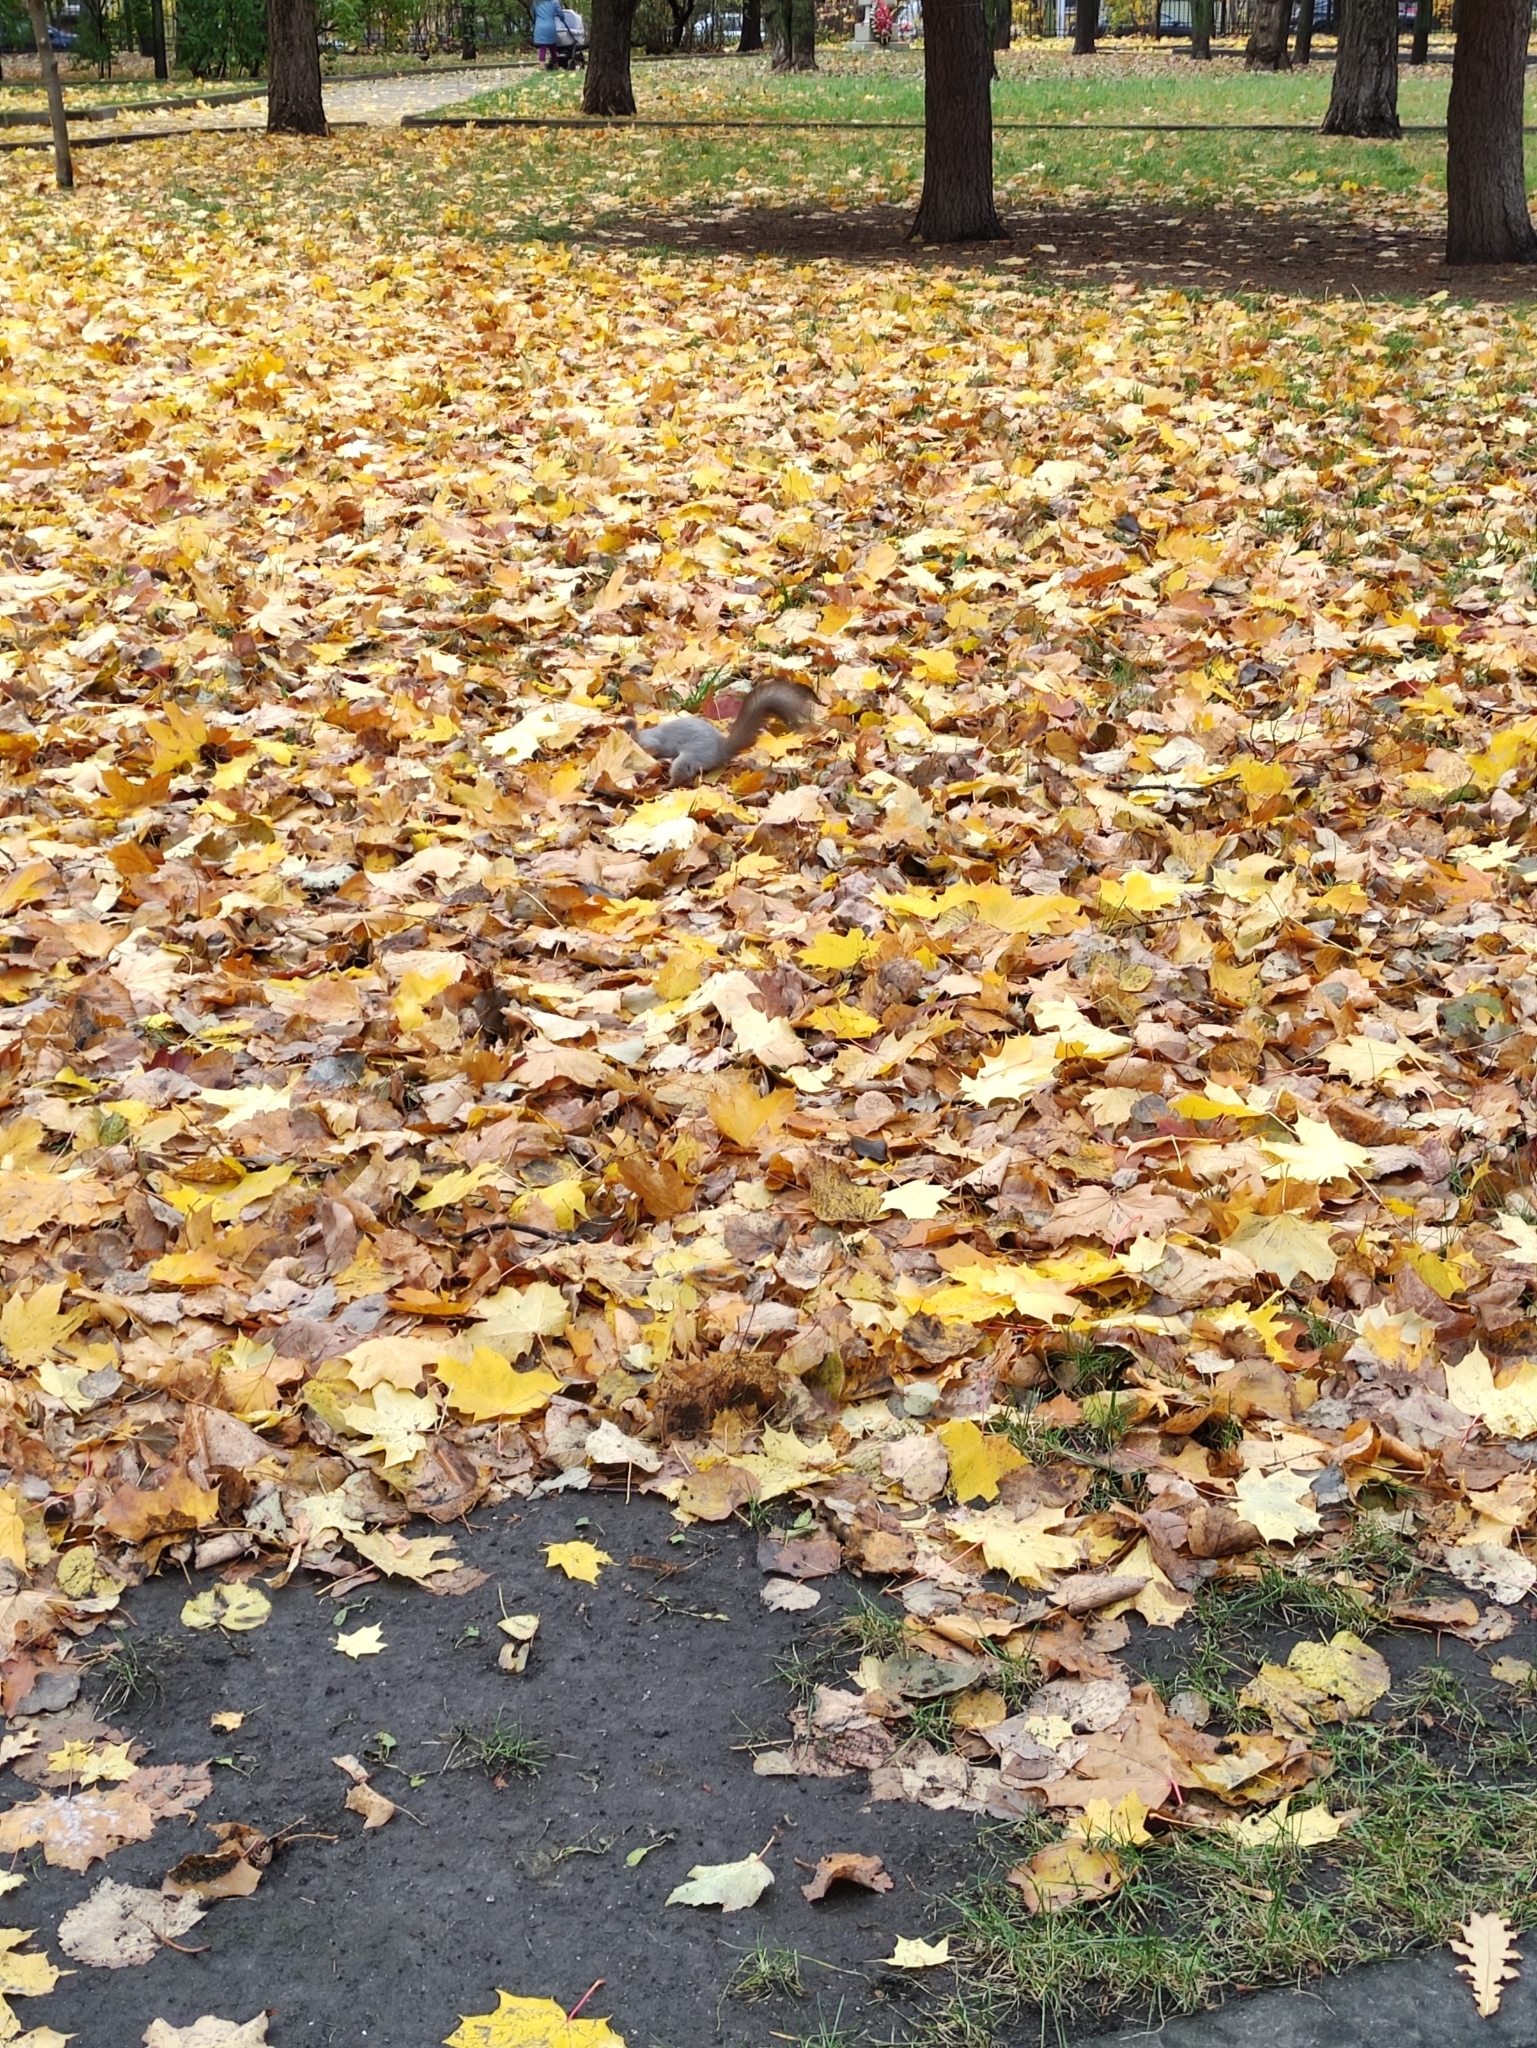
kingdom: Animalia
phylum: Chordata
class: Mammalia
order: Rodentia
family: Sciuridae
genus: Sciurus
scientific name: Sciurus vulgaris
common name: Eurasian red squirrel
